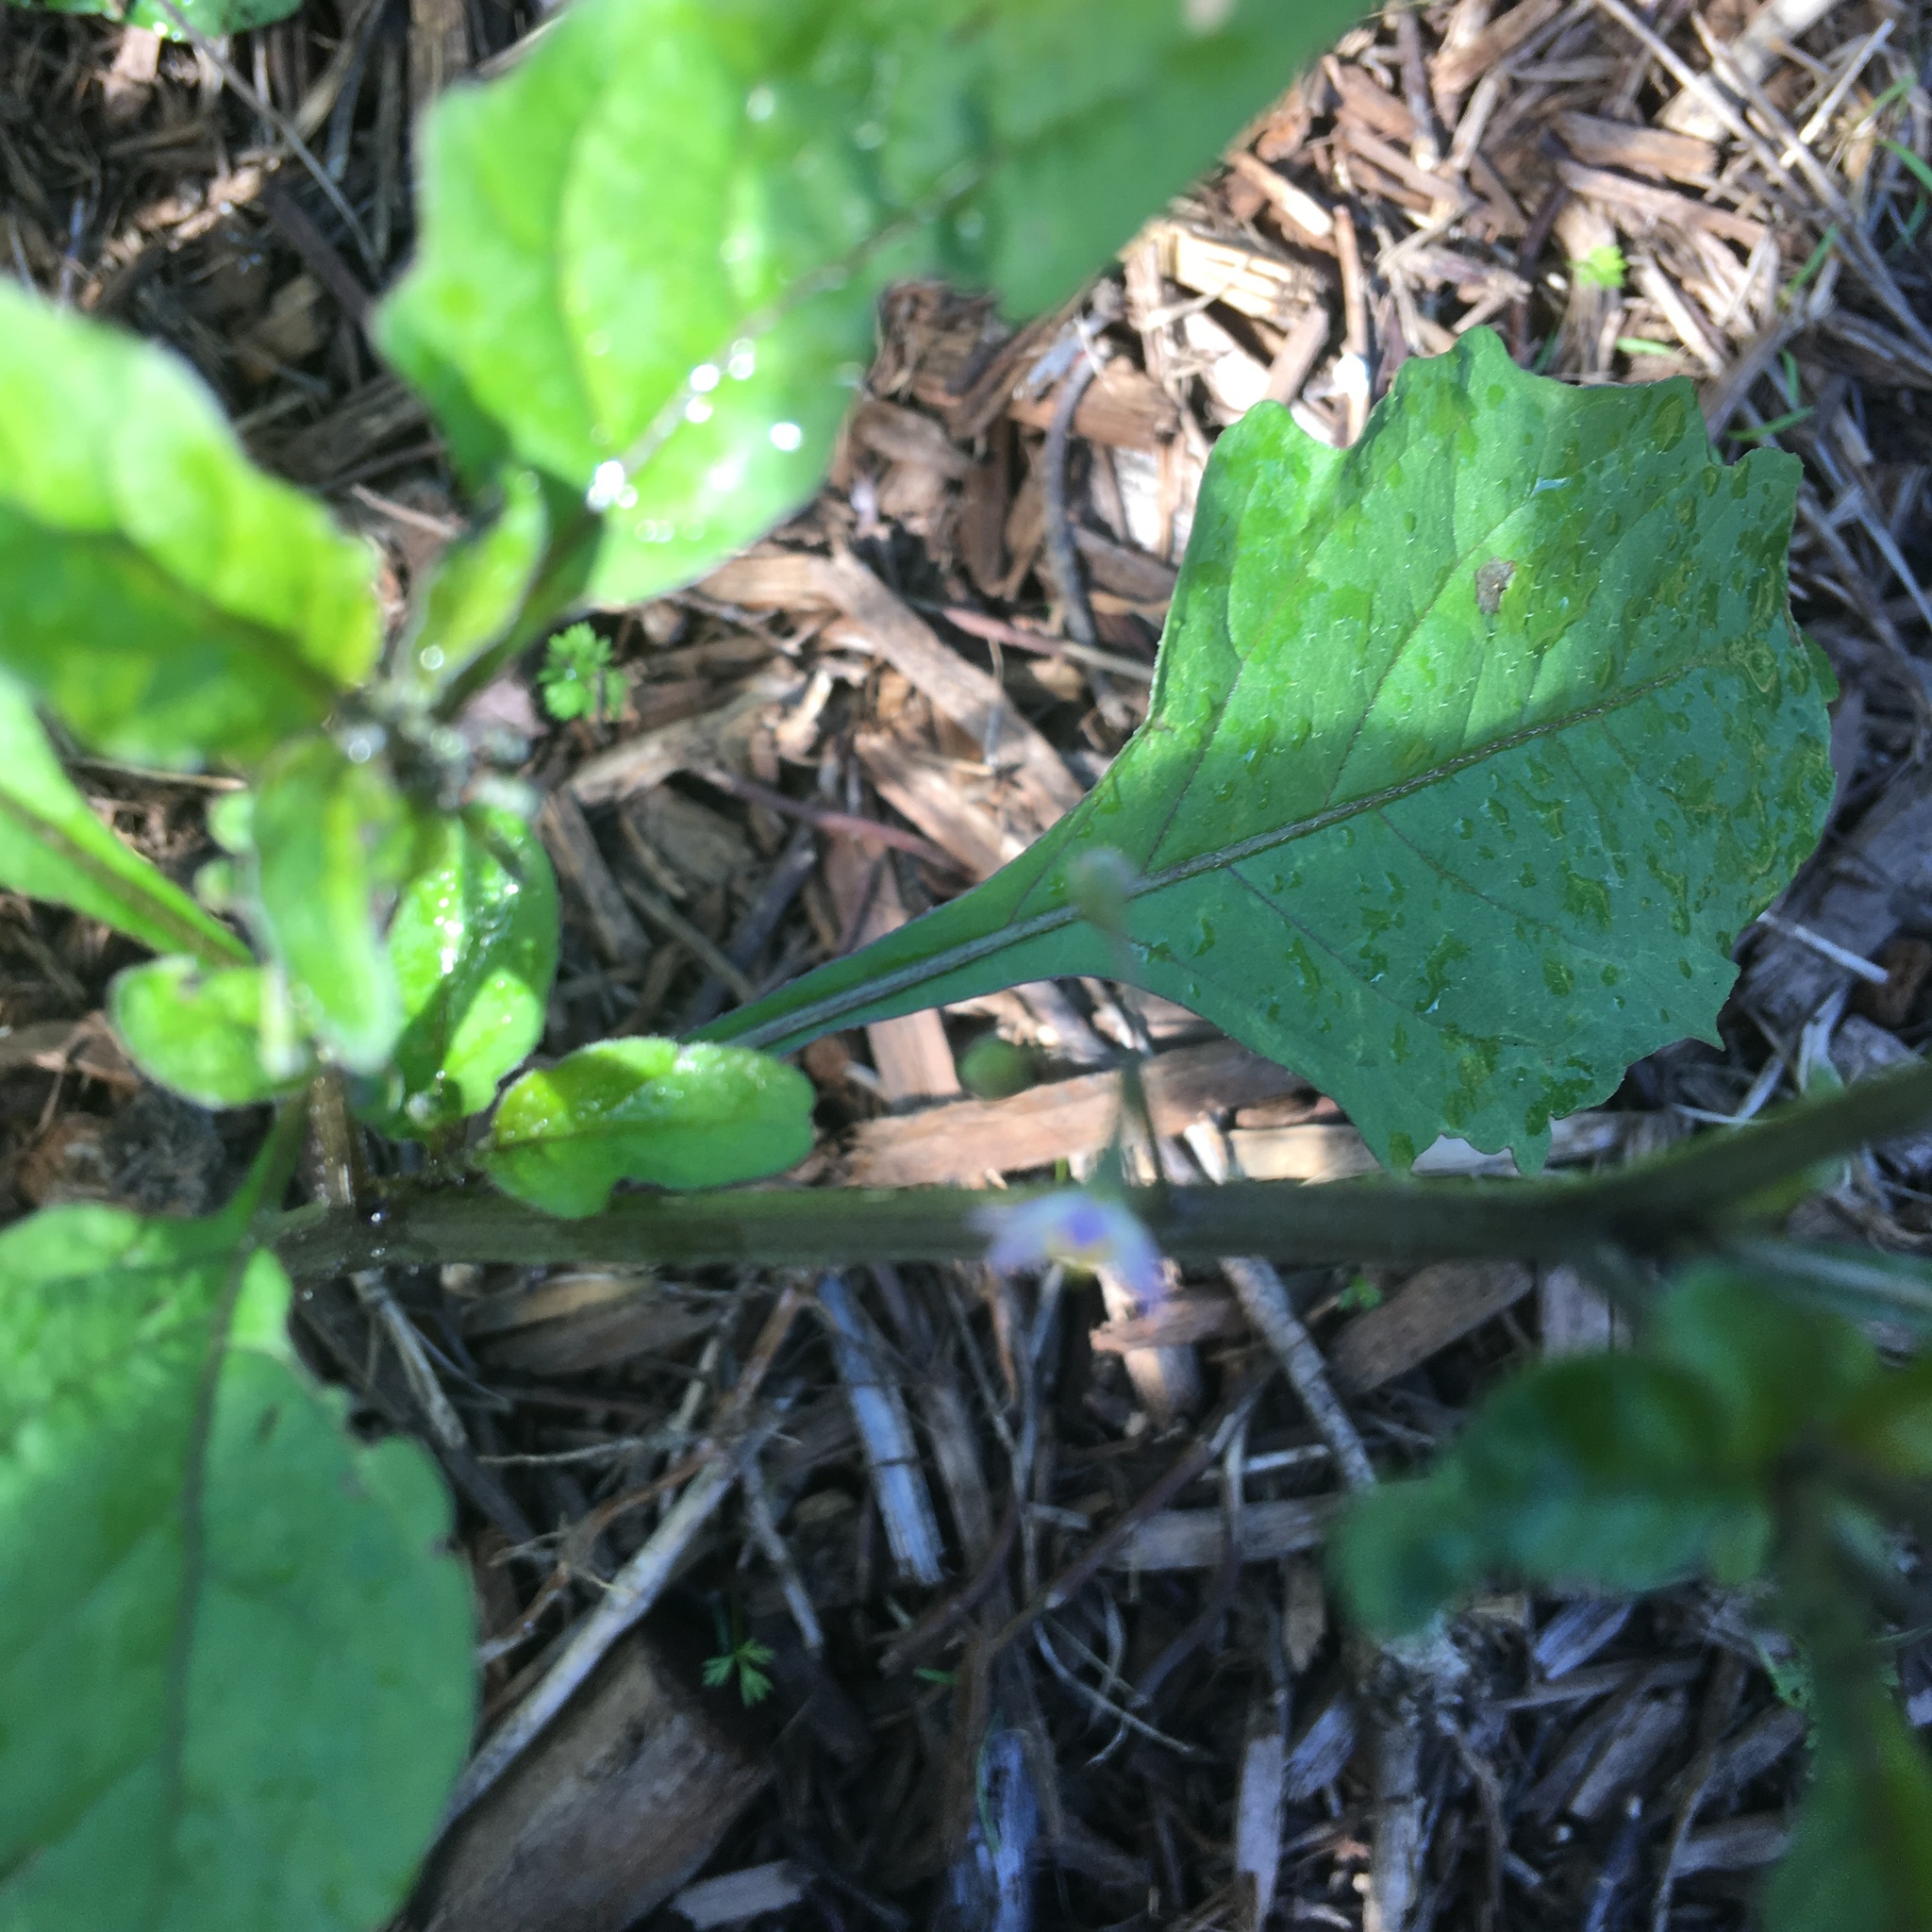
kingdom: Plantae
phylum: Tracheophyta
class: Magnoliopsida
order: Solanales
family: Solanaceae
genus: Solanum
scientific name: Solanum opacum
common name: Green-berry nightshade
